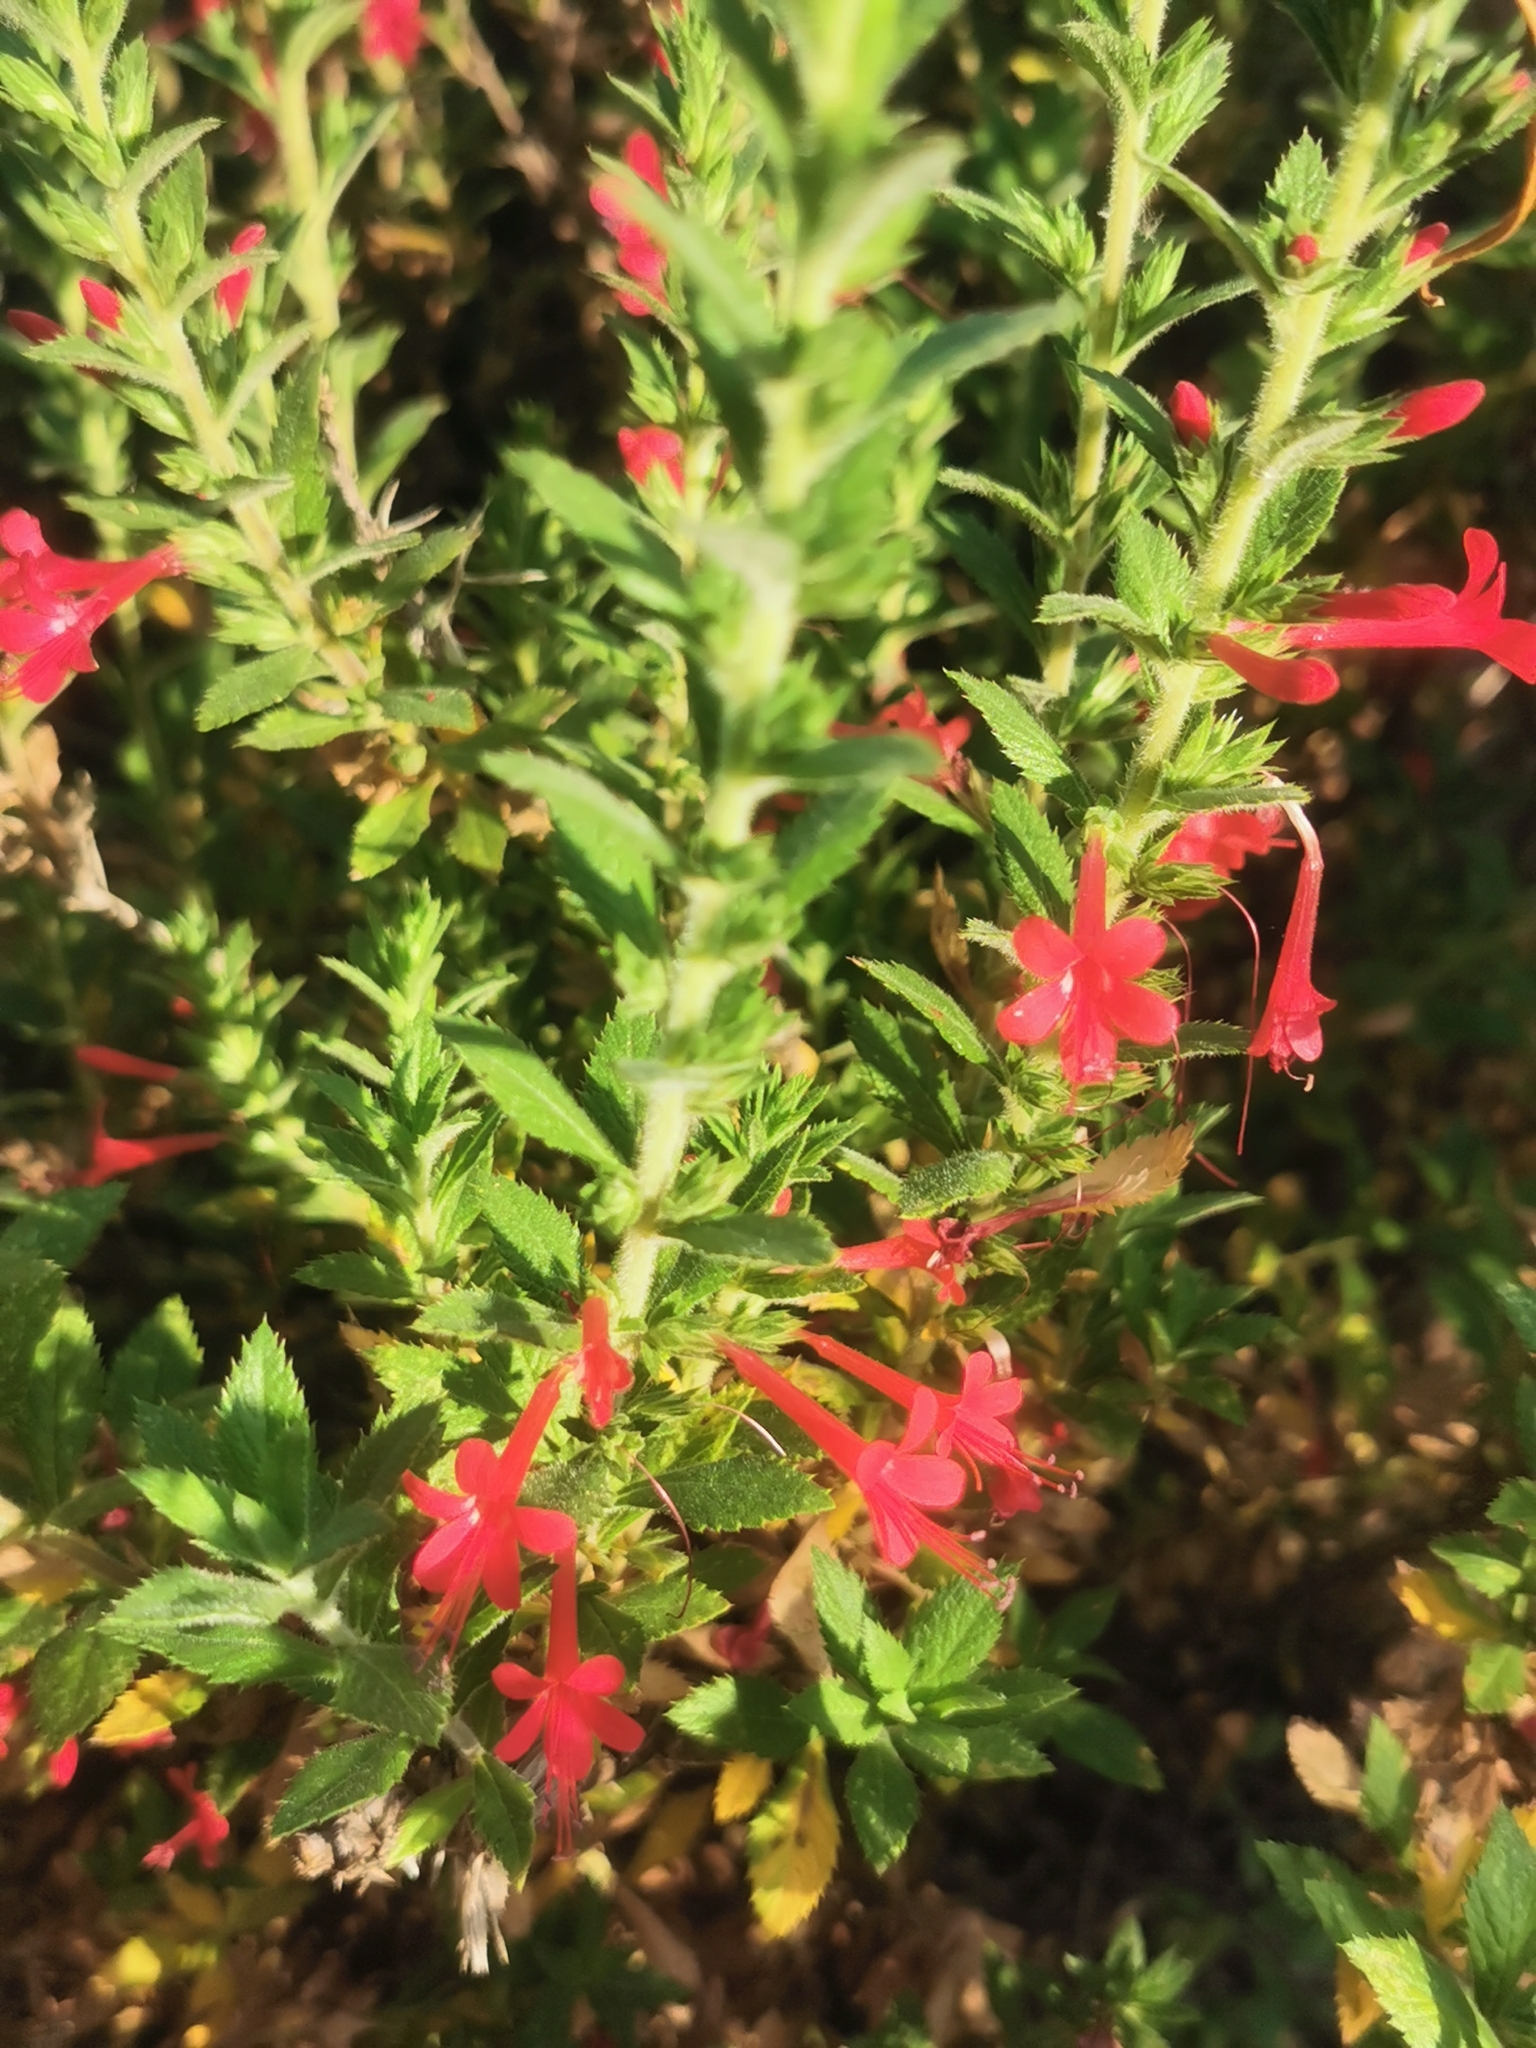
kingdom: Plantae
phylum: Tracheophyta
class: Magnoliopsida
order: Ericales
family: Polemoniaceae
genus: Loeselia
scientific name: Loeselia mexicana
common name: Mexican false calico
